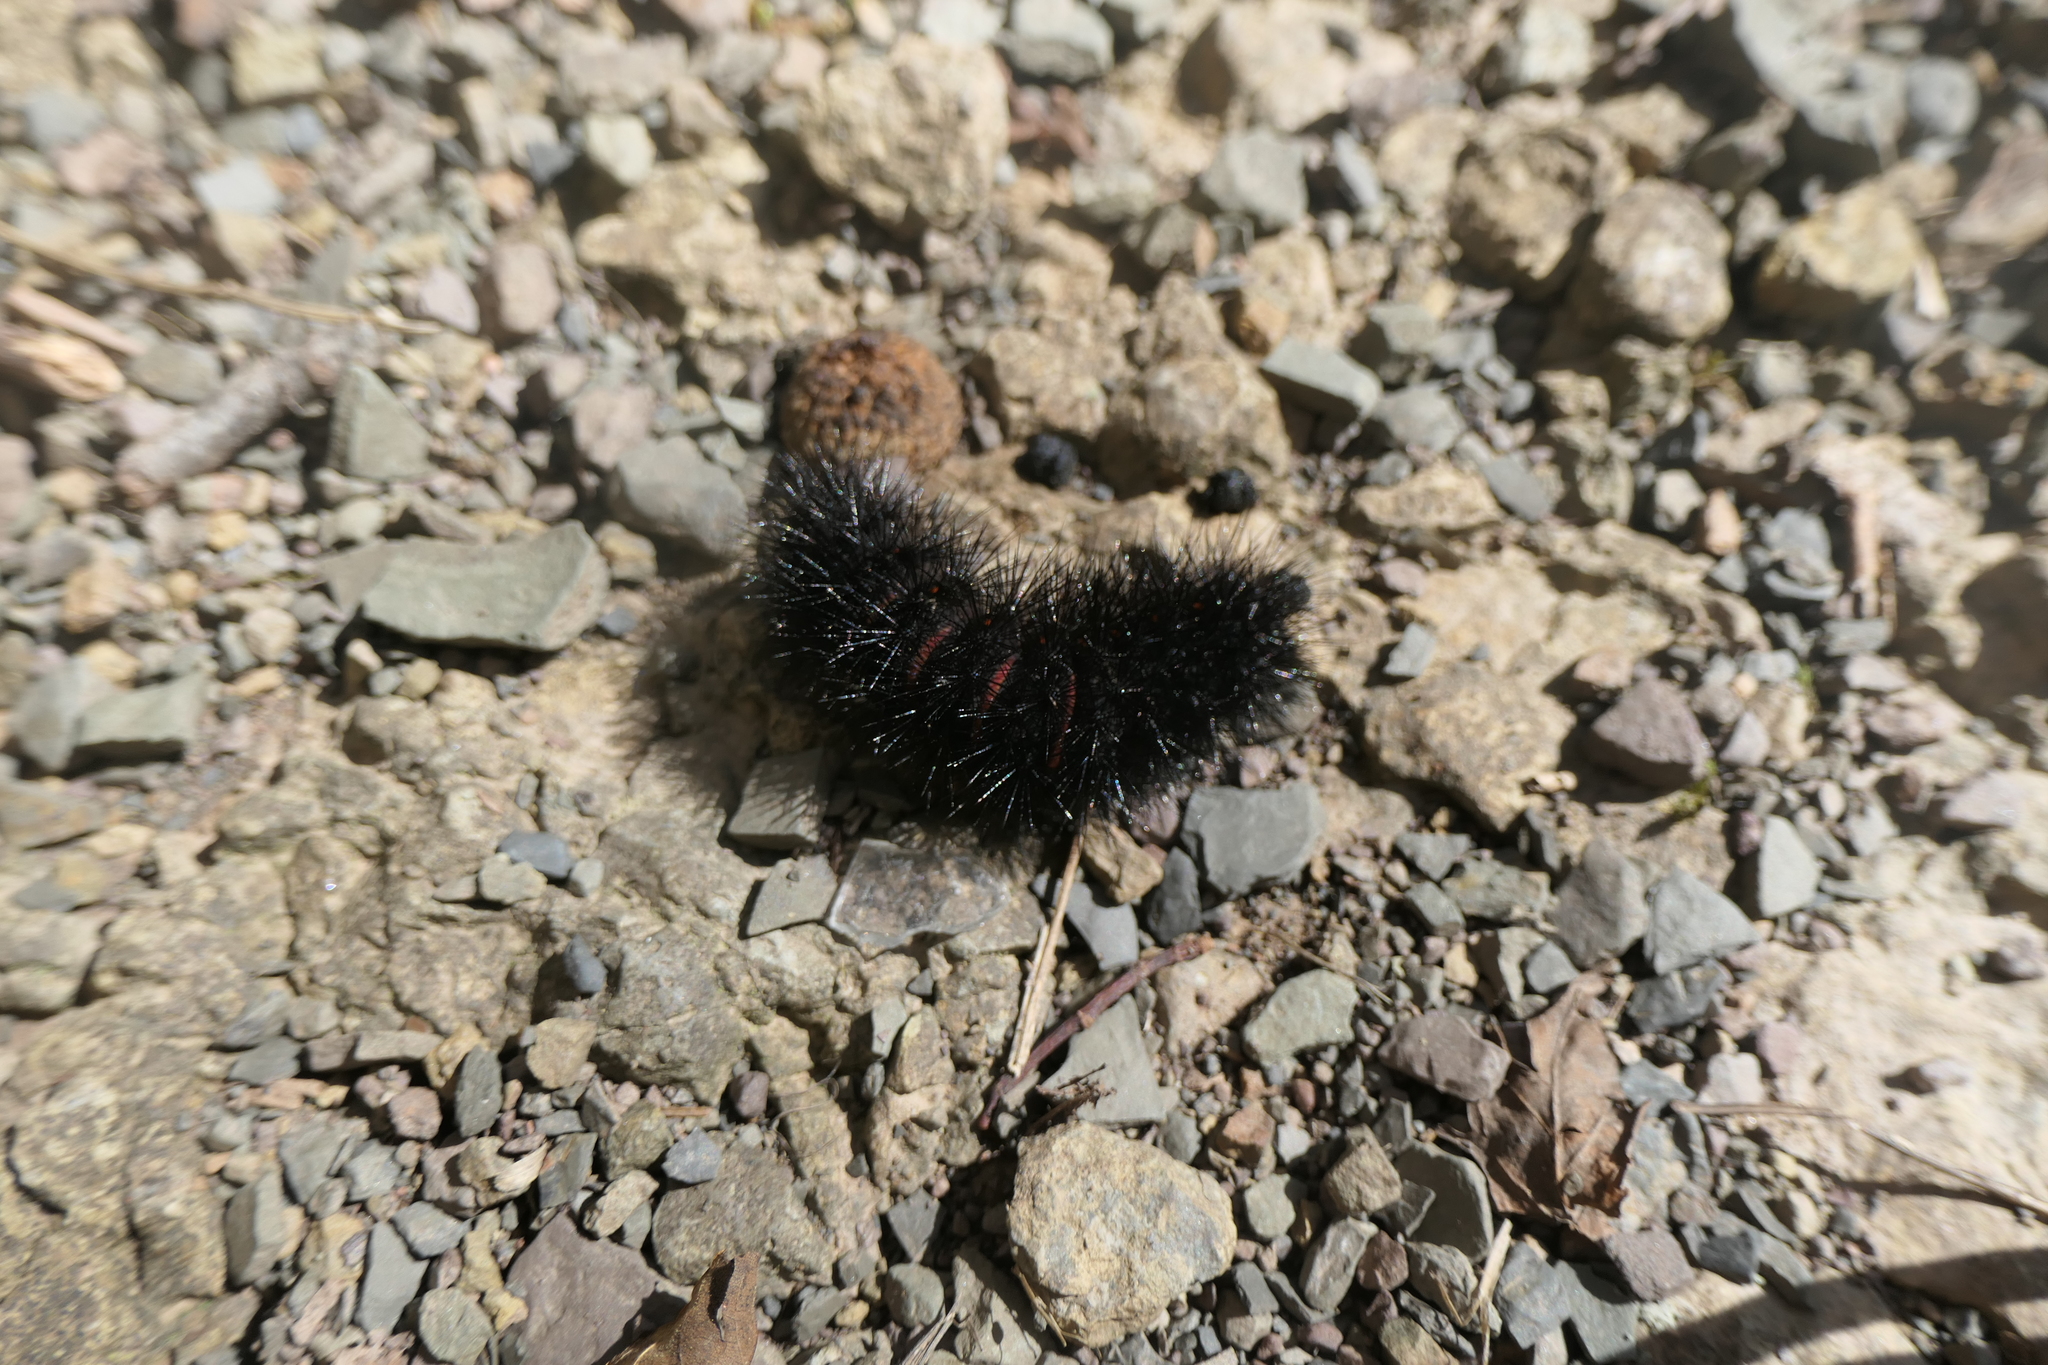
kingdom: Animalia
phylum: Arthropoda
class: Insecta
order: Lepidoptera
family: Erebidae
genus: Hypercompe
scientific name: Hypercompe scribonia
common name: Giant leopard moth
